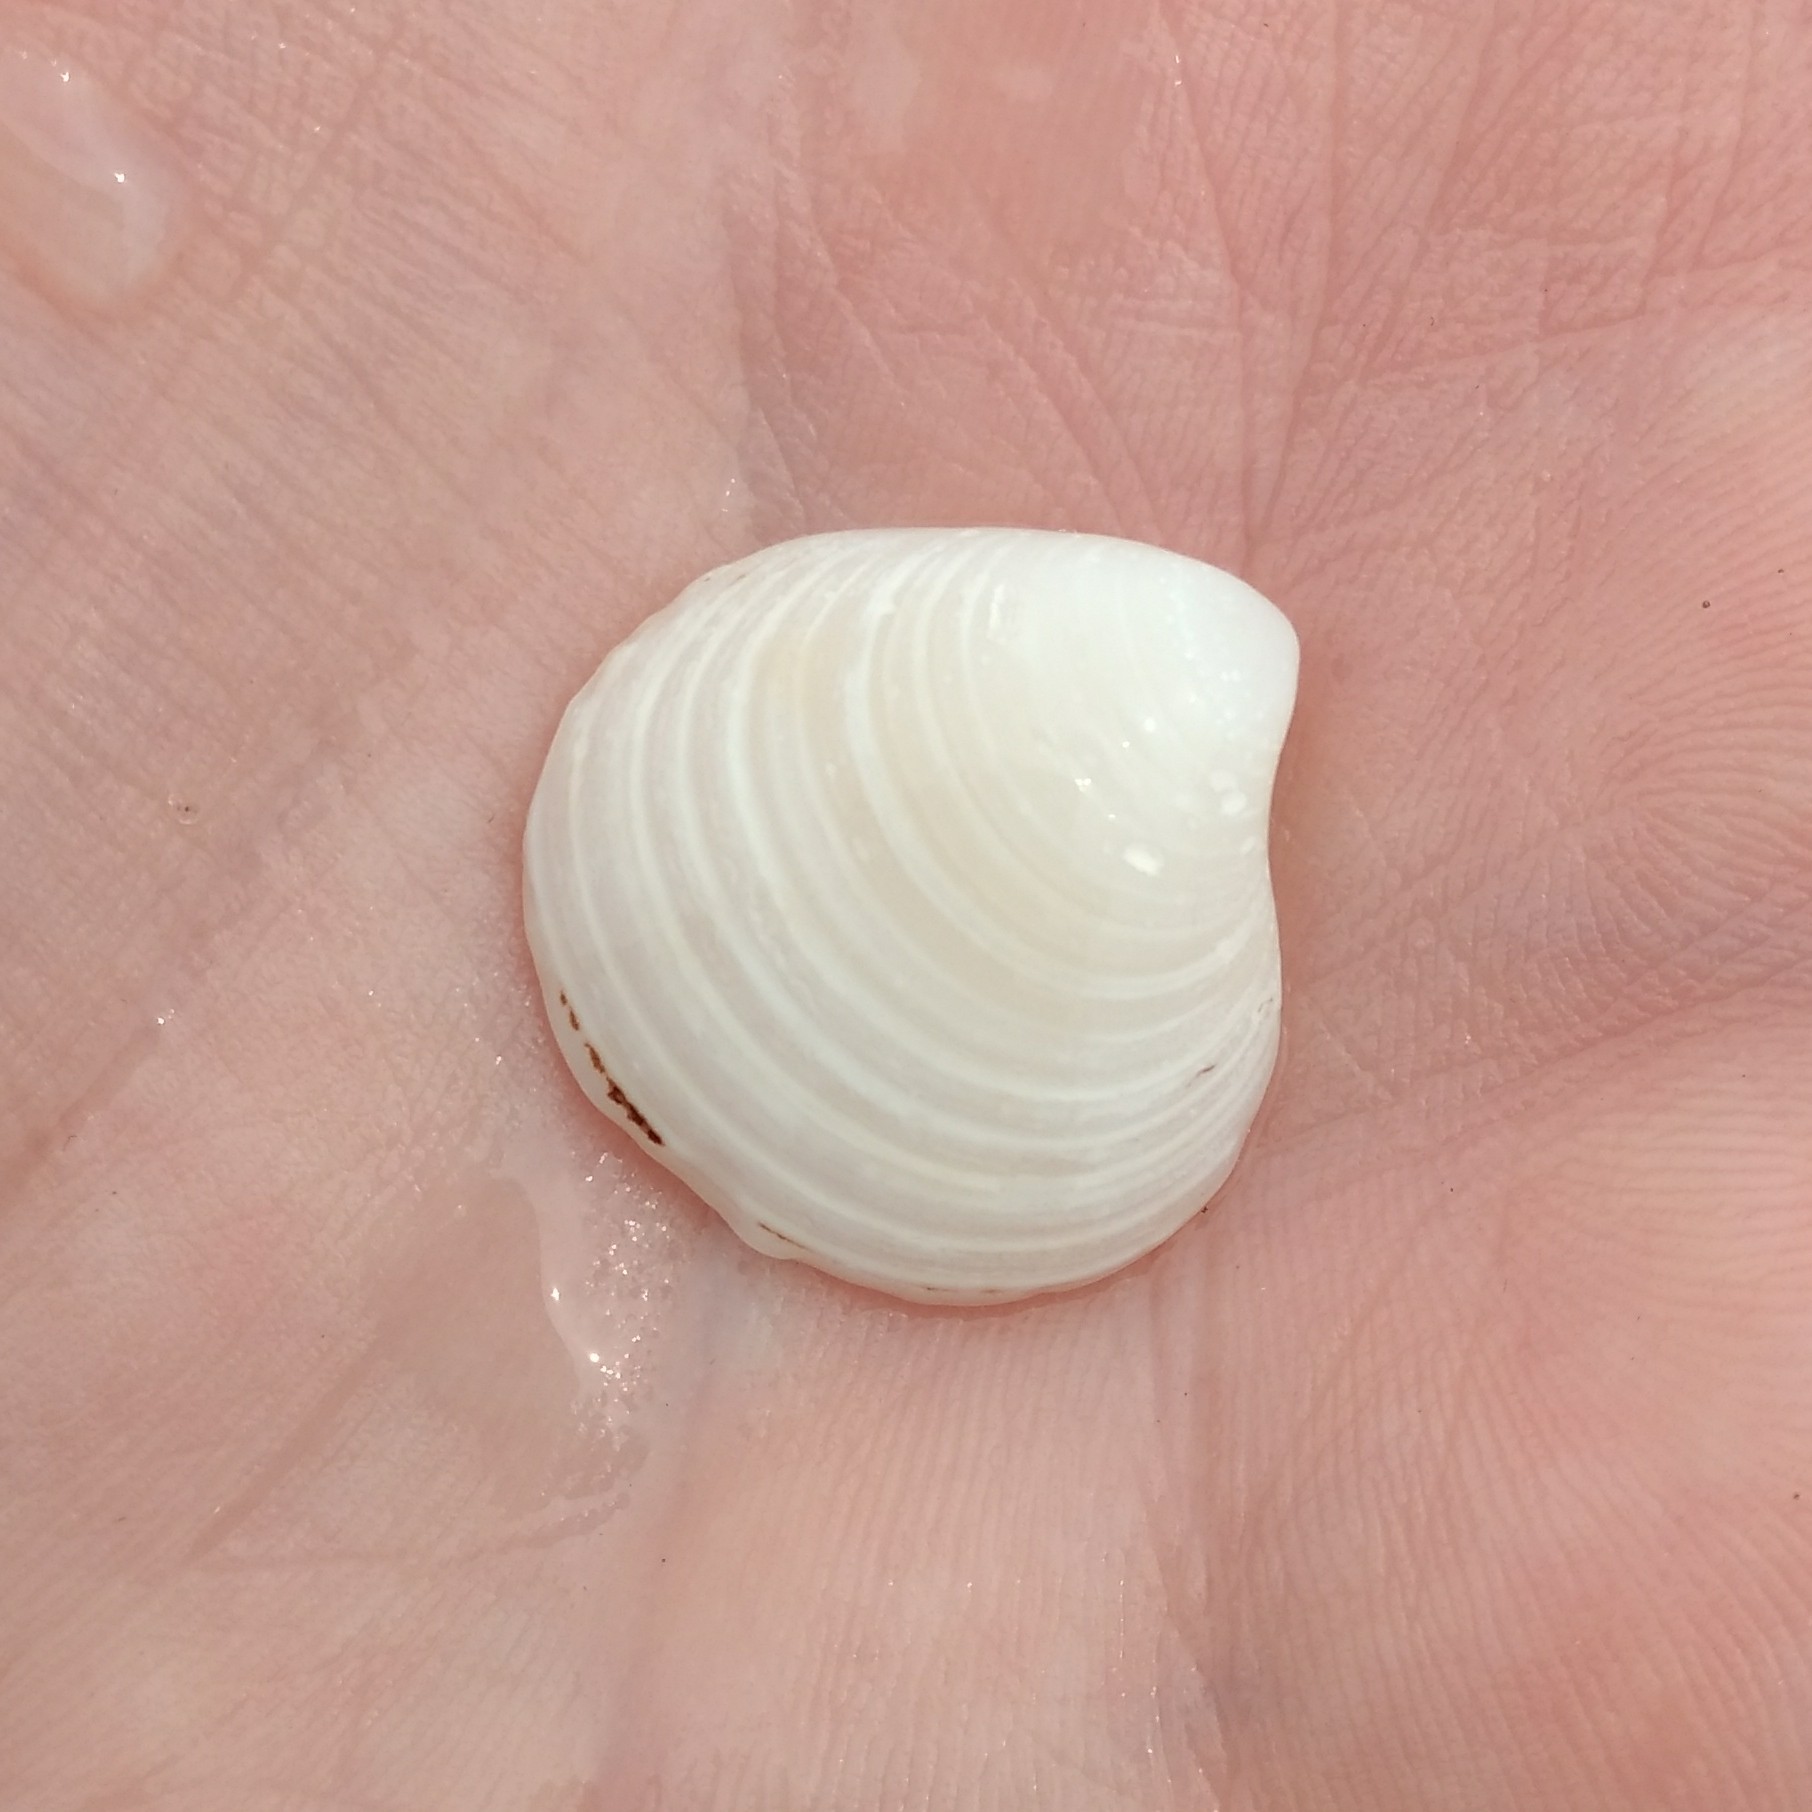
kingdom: Animalia
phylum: Mollusca
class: Bivalvia
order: Cardiida
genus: Isocrassina
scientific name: Isocrassina
